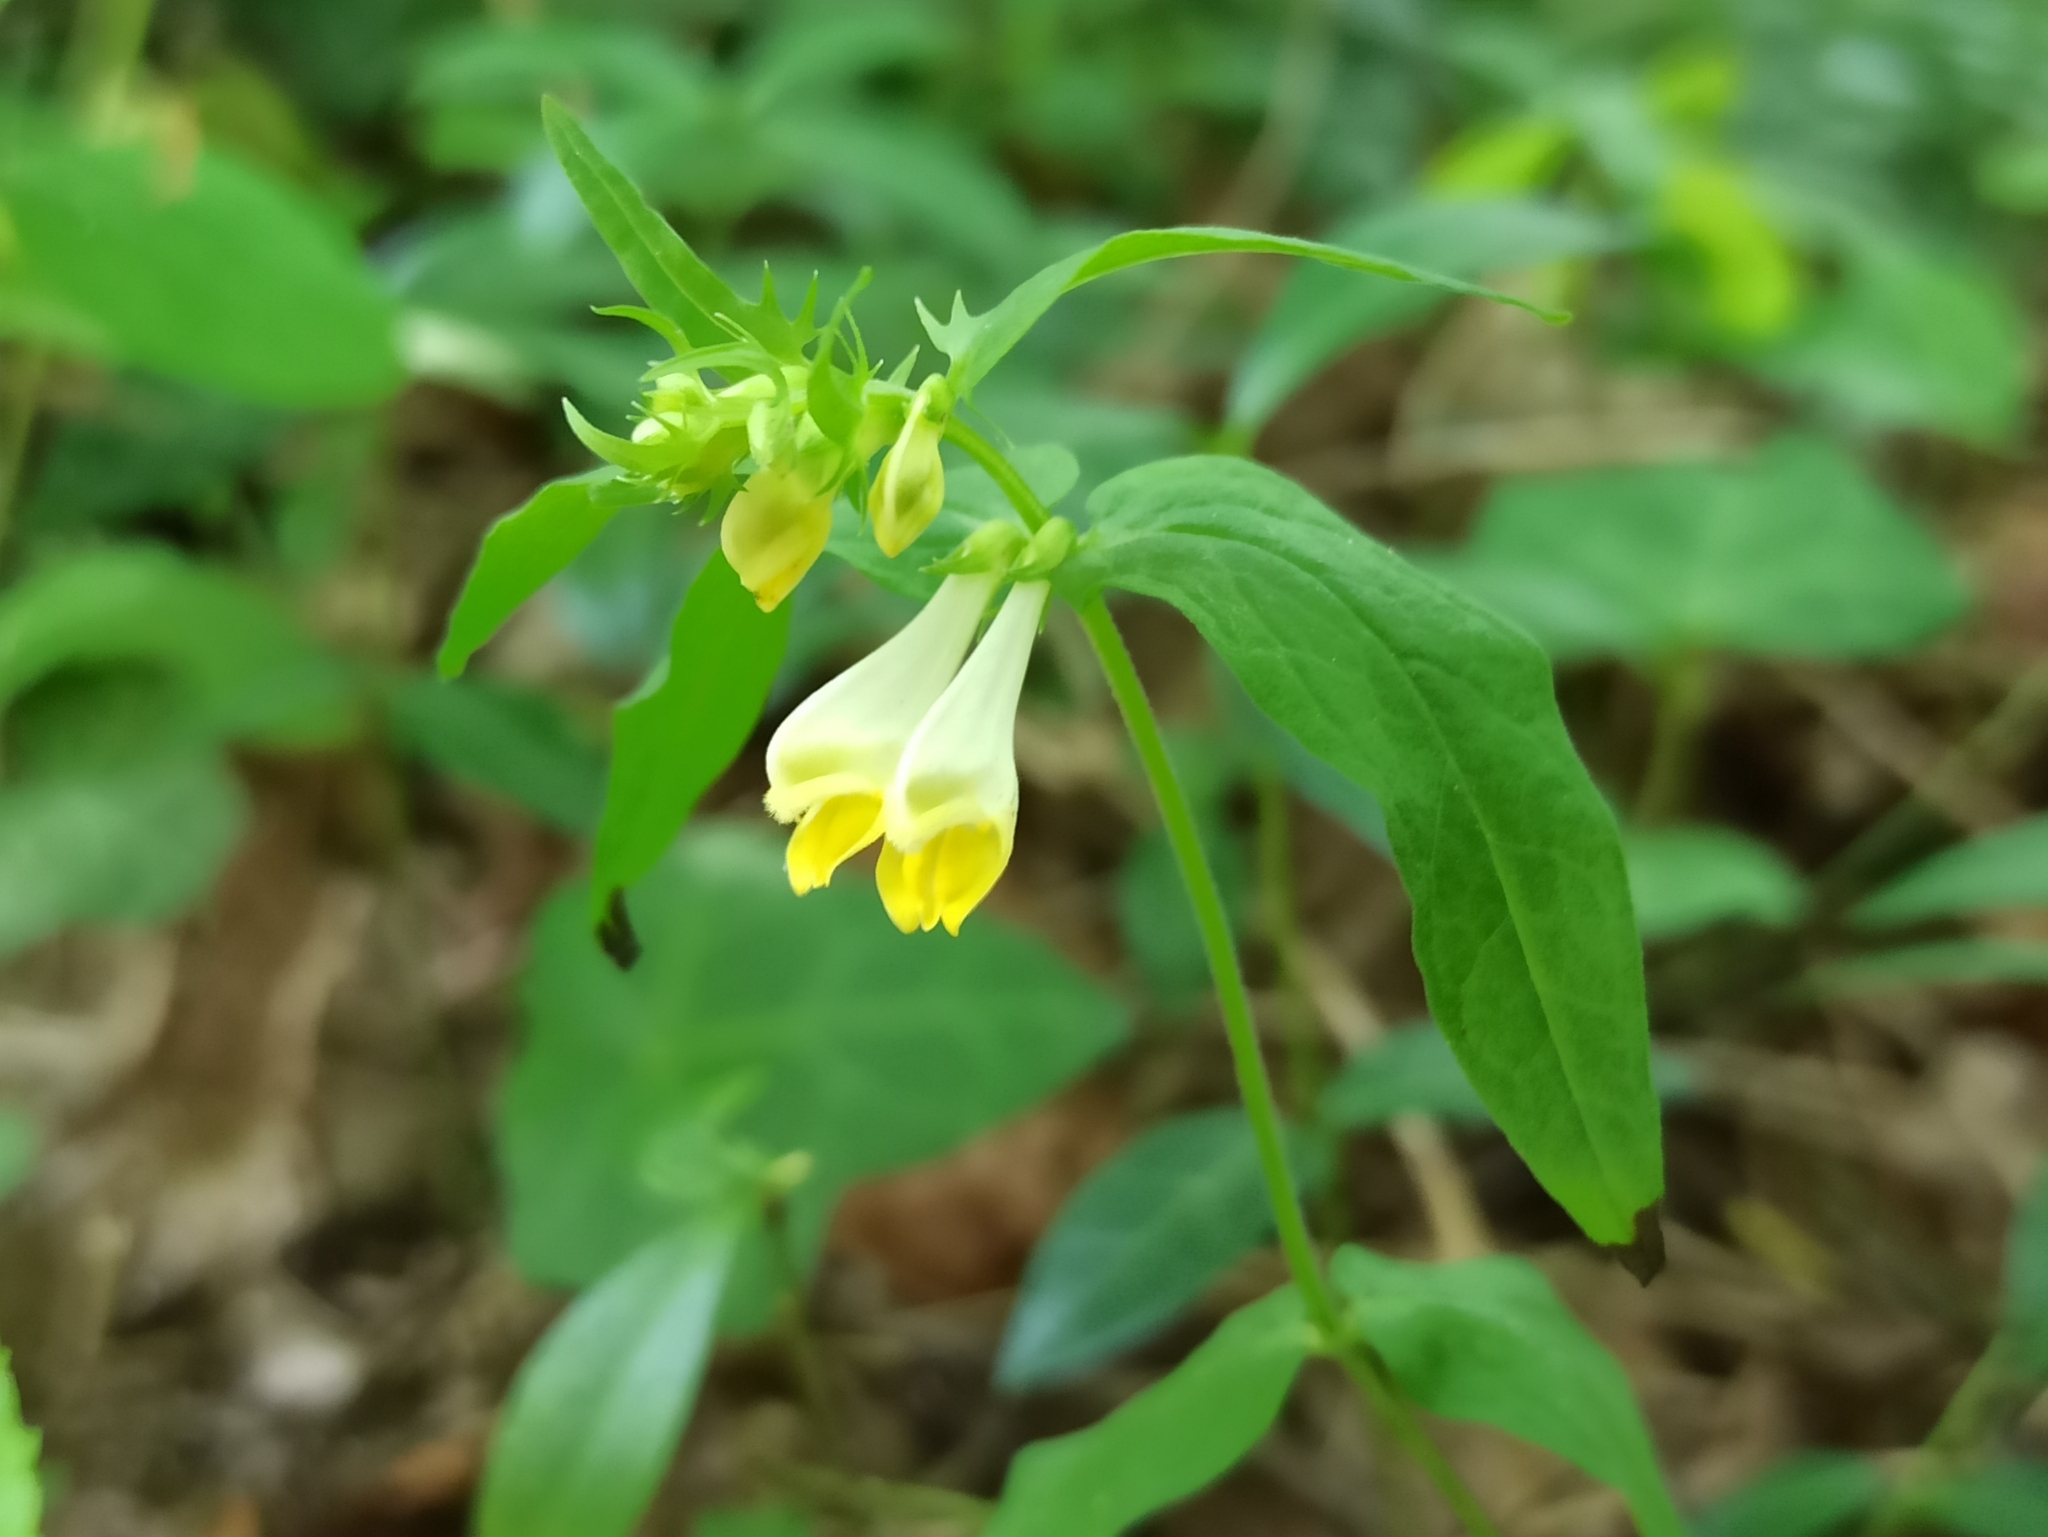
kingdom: Plantae
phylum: Tracheophyta
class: Magnoliopsida
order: Lamiales
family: Orobanchaceae
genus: Melampyrum
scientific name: Melampyrum pratense
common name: Common cow-wheat
